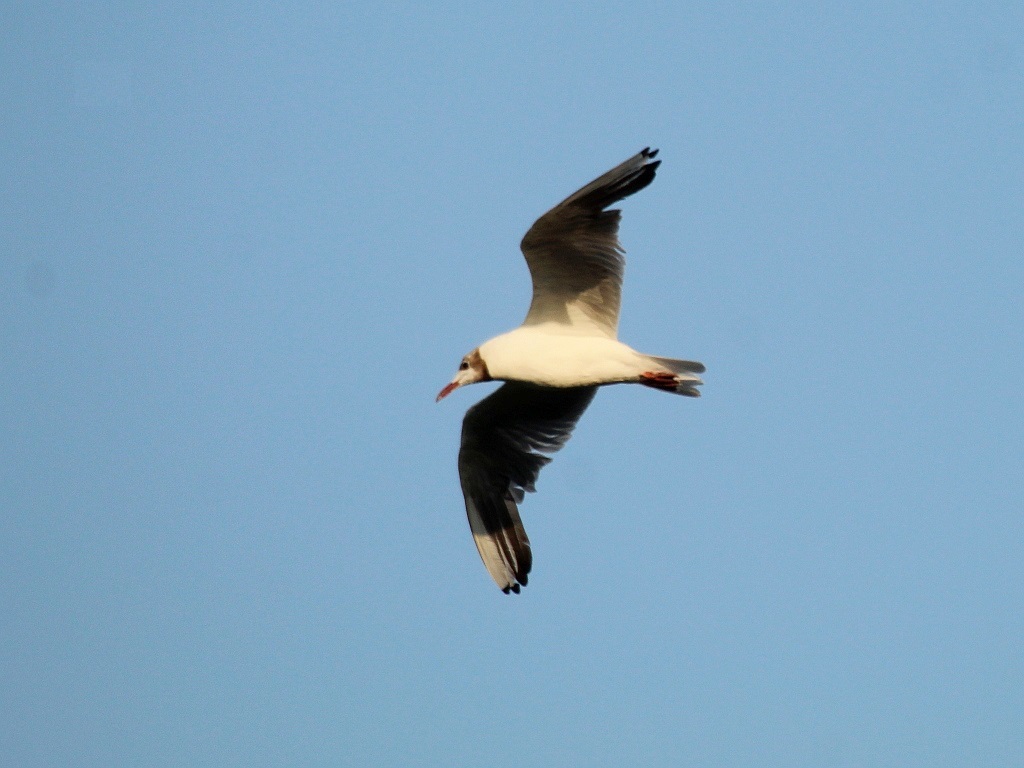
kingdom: Animalia
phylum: Chordata
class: Aves
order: Charadriiformes
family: Laridae
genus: Chroicocephalus
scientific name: Chroicocephalus ridibundus
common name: Black-headed gull
